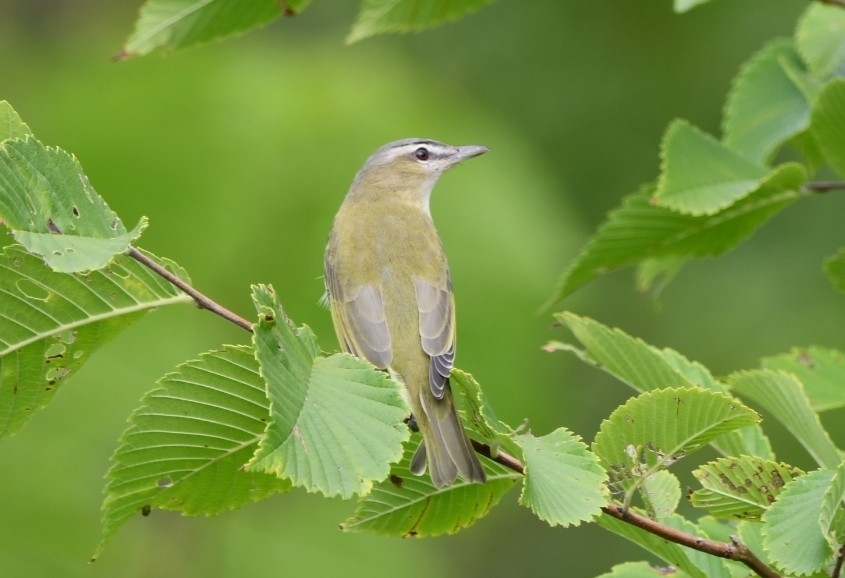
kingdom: Animalia
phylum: Chordata
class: Aves
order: Passeriformes
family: Vireonidae
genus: Vireo
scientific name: Vireo olivaceus
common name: Red-eyed vireo
